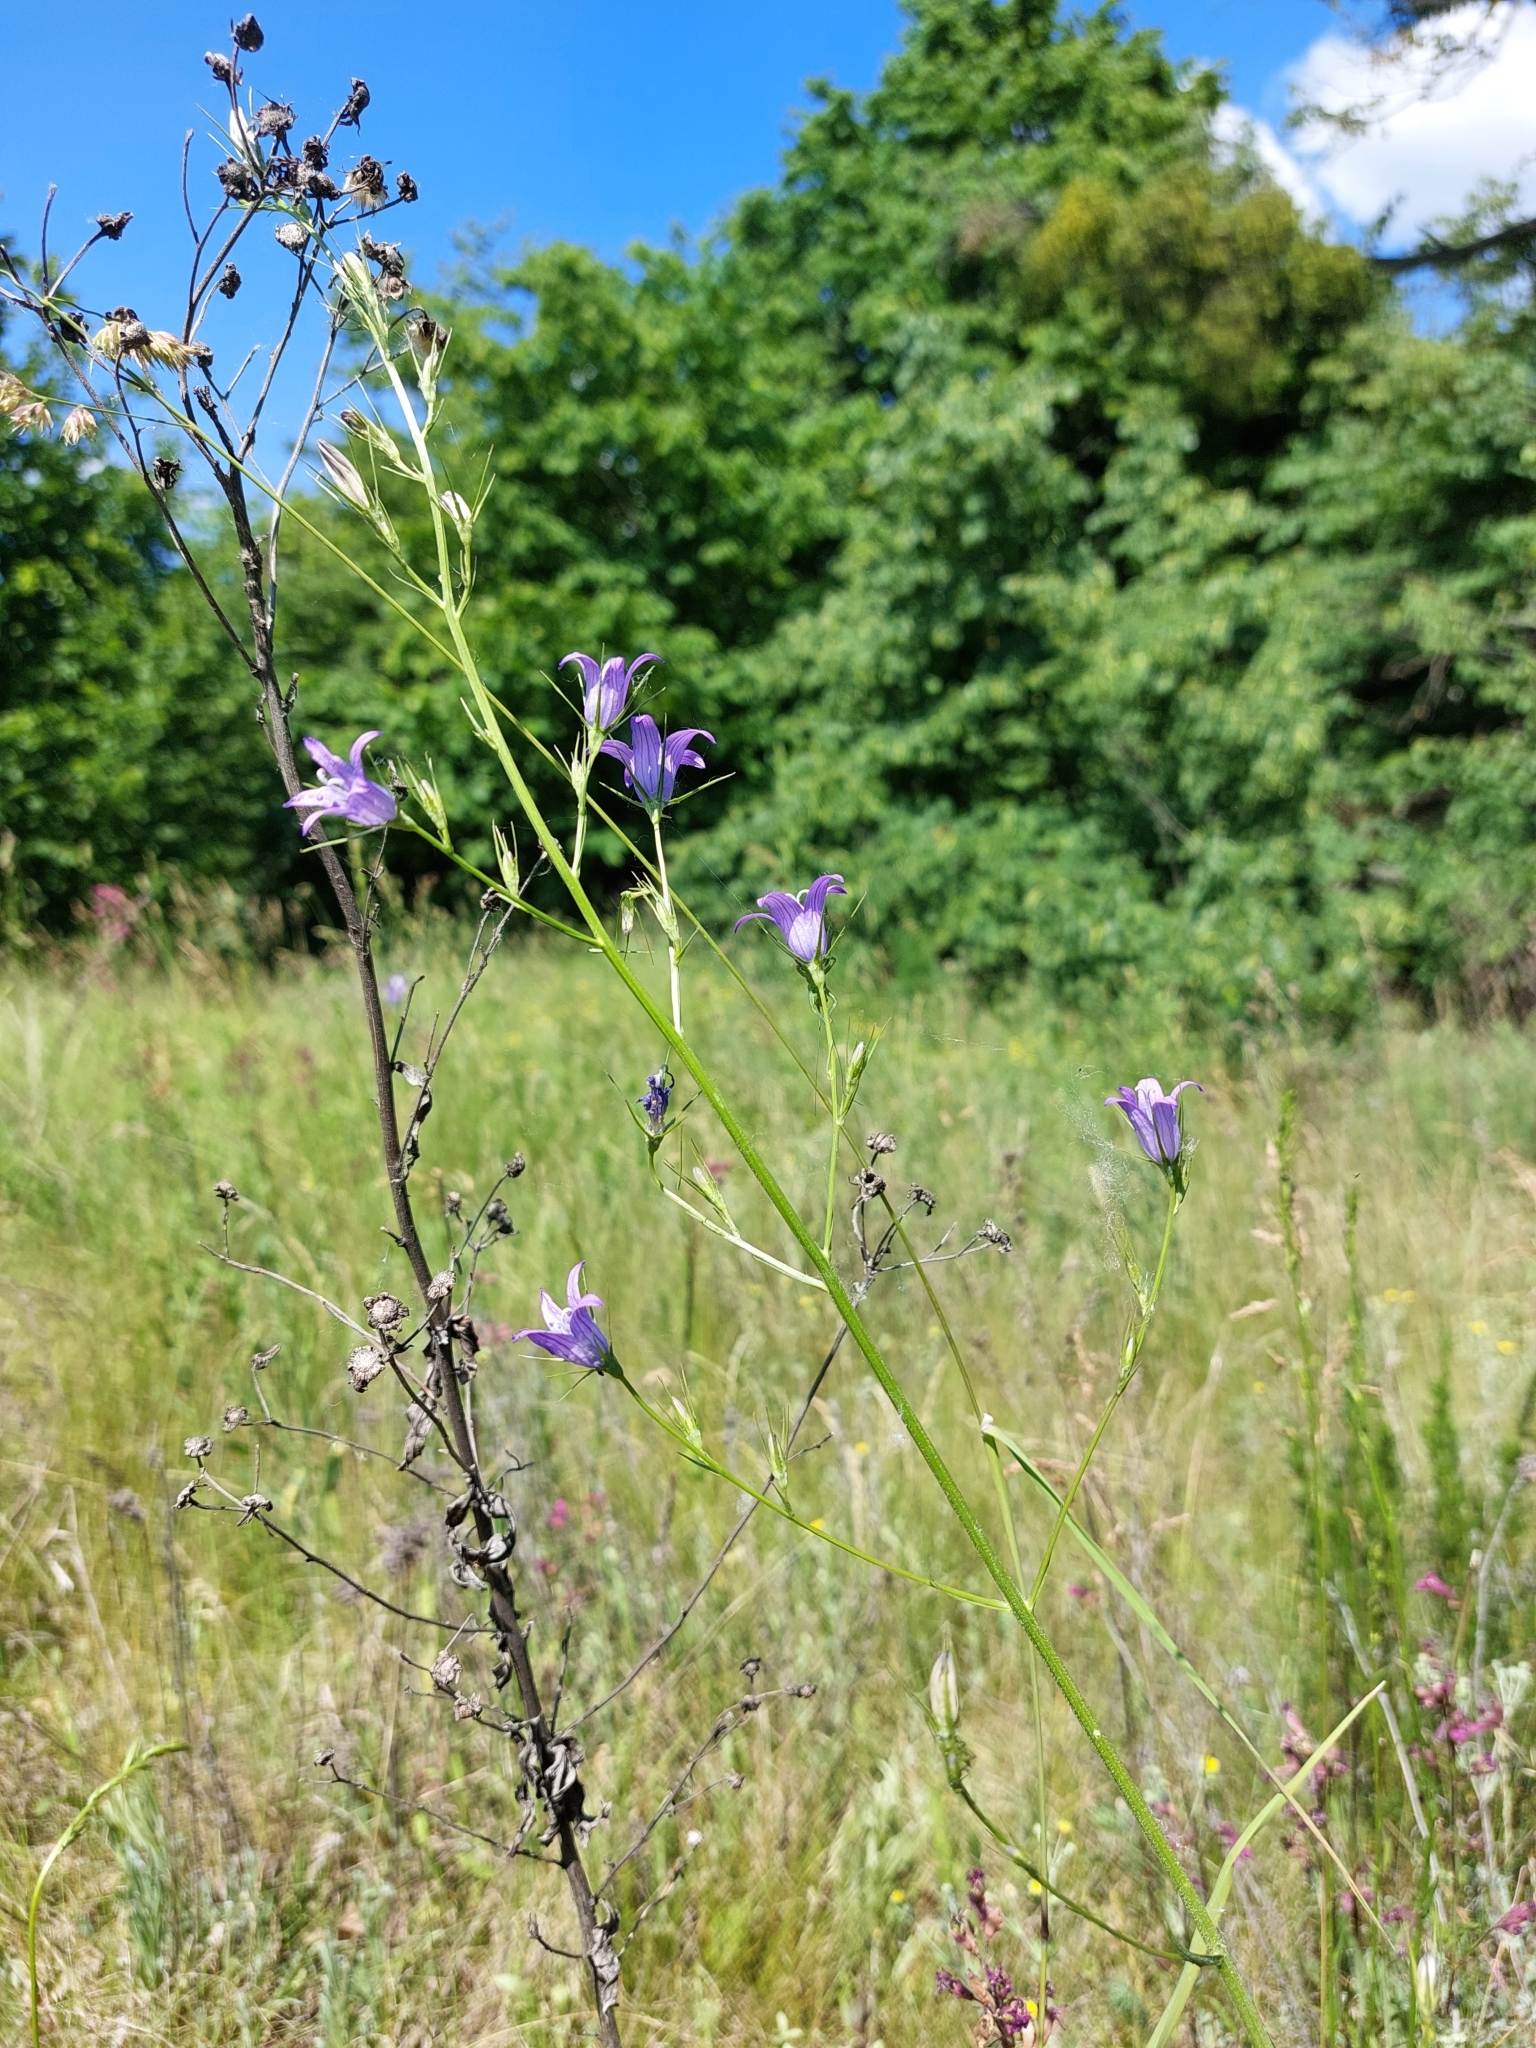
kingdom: Plantae
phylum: Tracheophyta
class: Magnoliopsida
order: Asterales
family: Campanulaceae
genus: Campanula
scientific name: Campanula rapunculus
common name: Rampion bellflower
